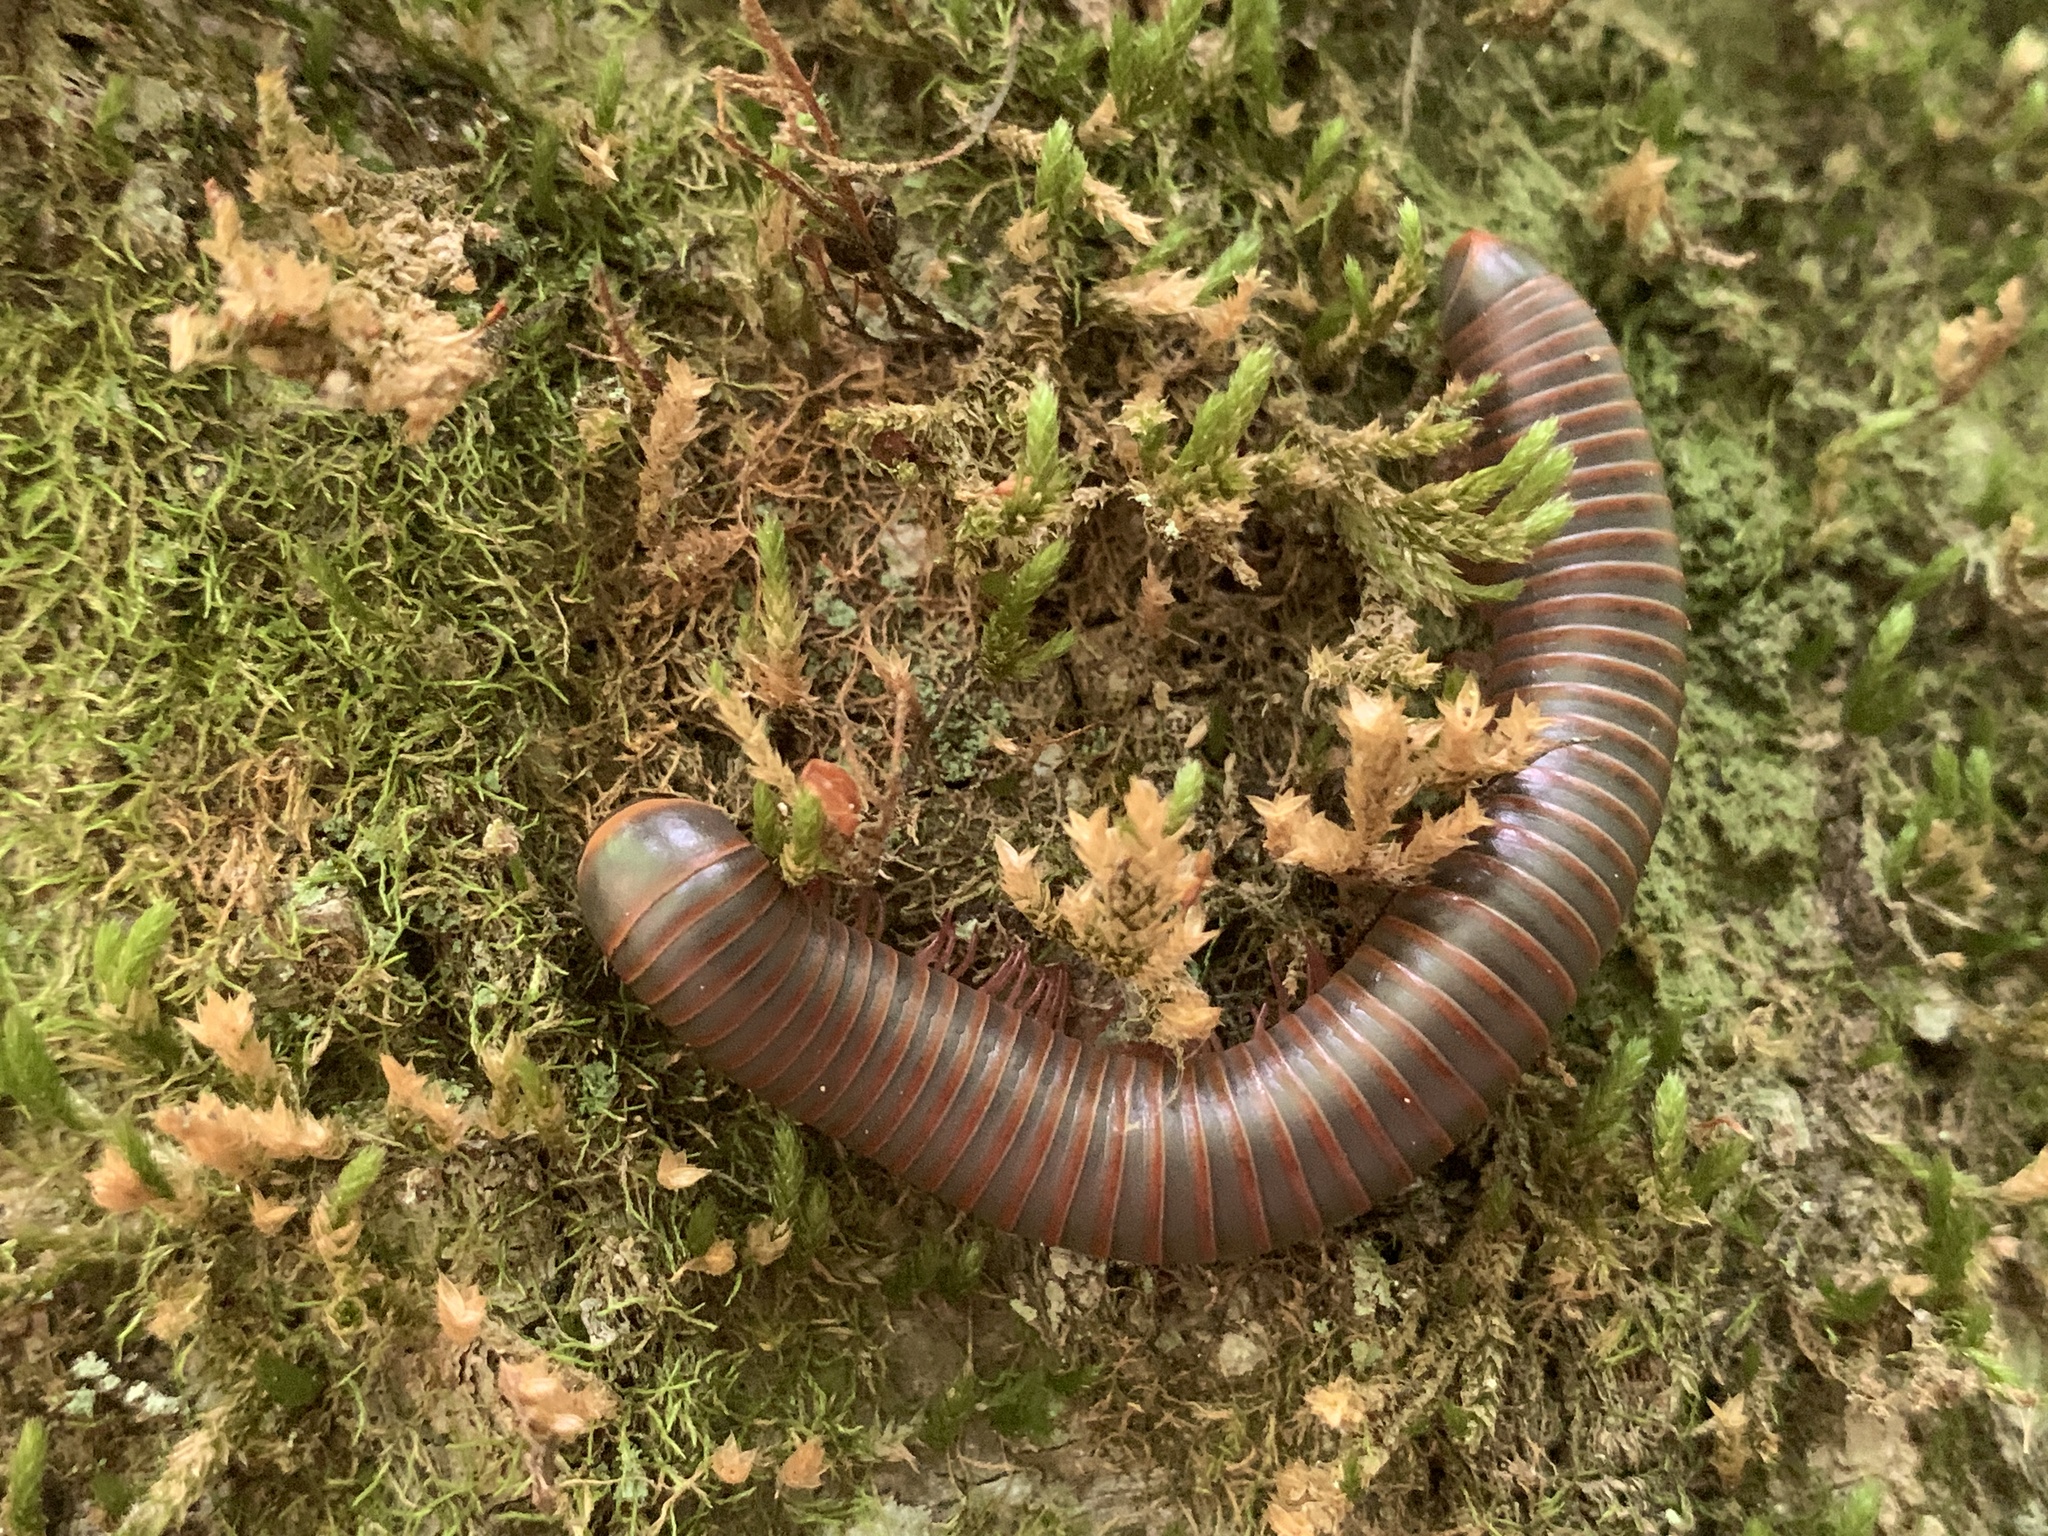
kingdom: Animalia
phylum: Arthropoda
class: Diplopoda
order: Spirobolida
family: Spirobolidae
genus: Narceus
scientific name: Narceus
